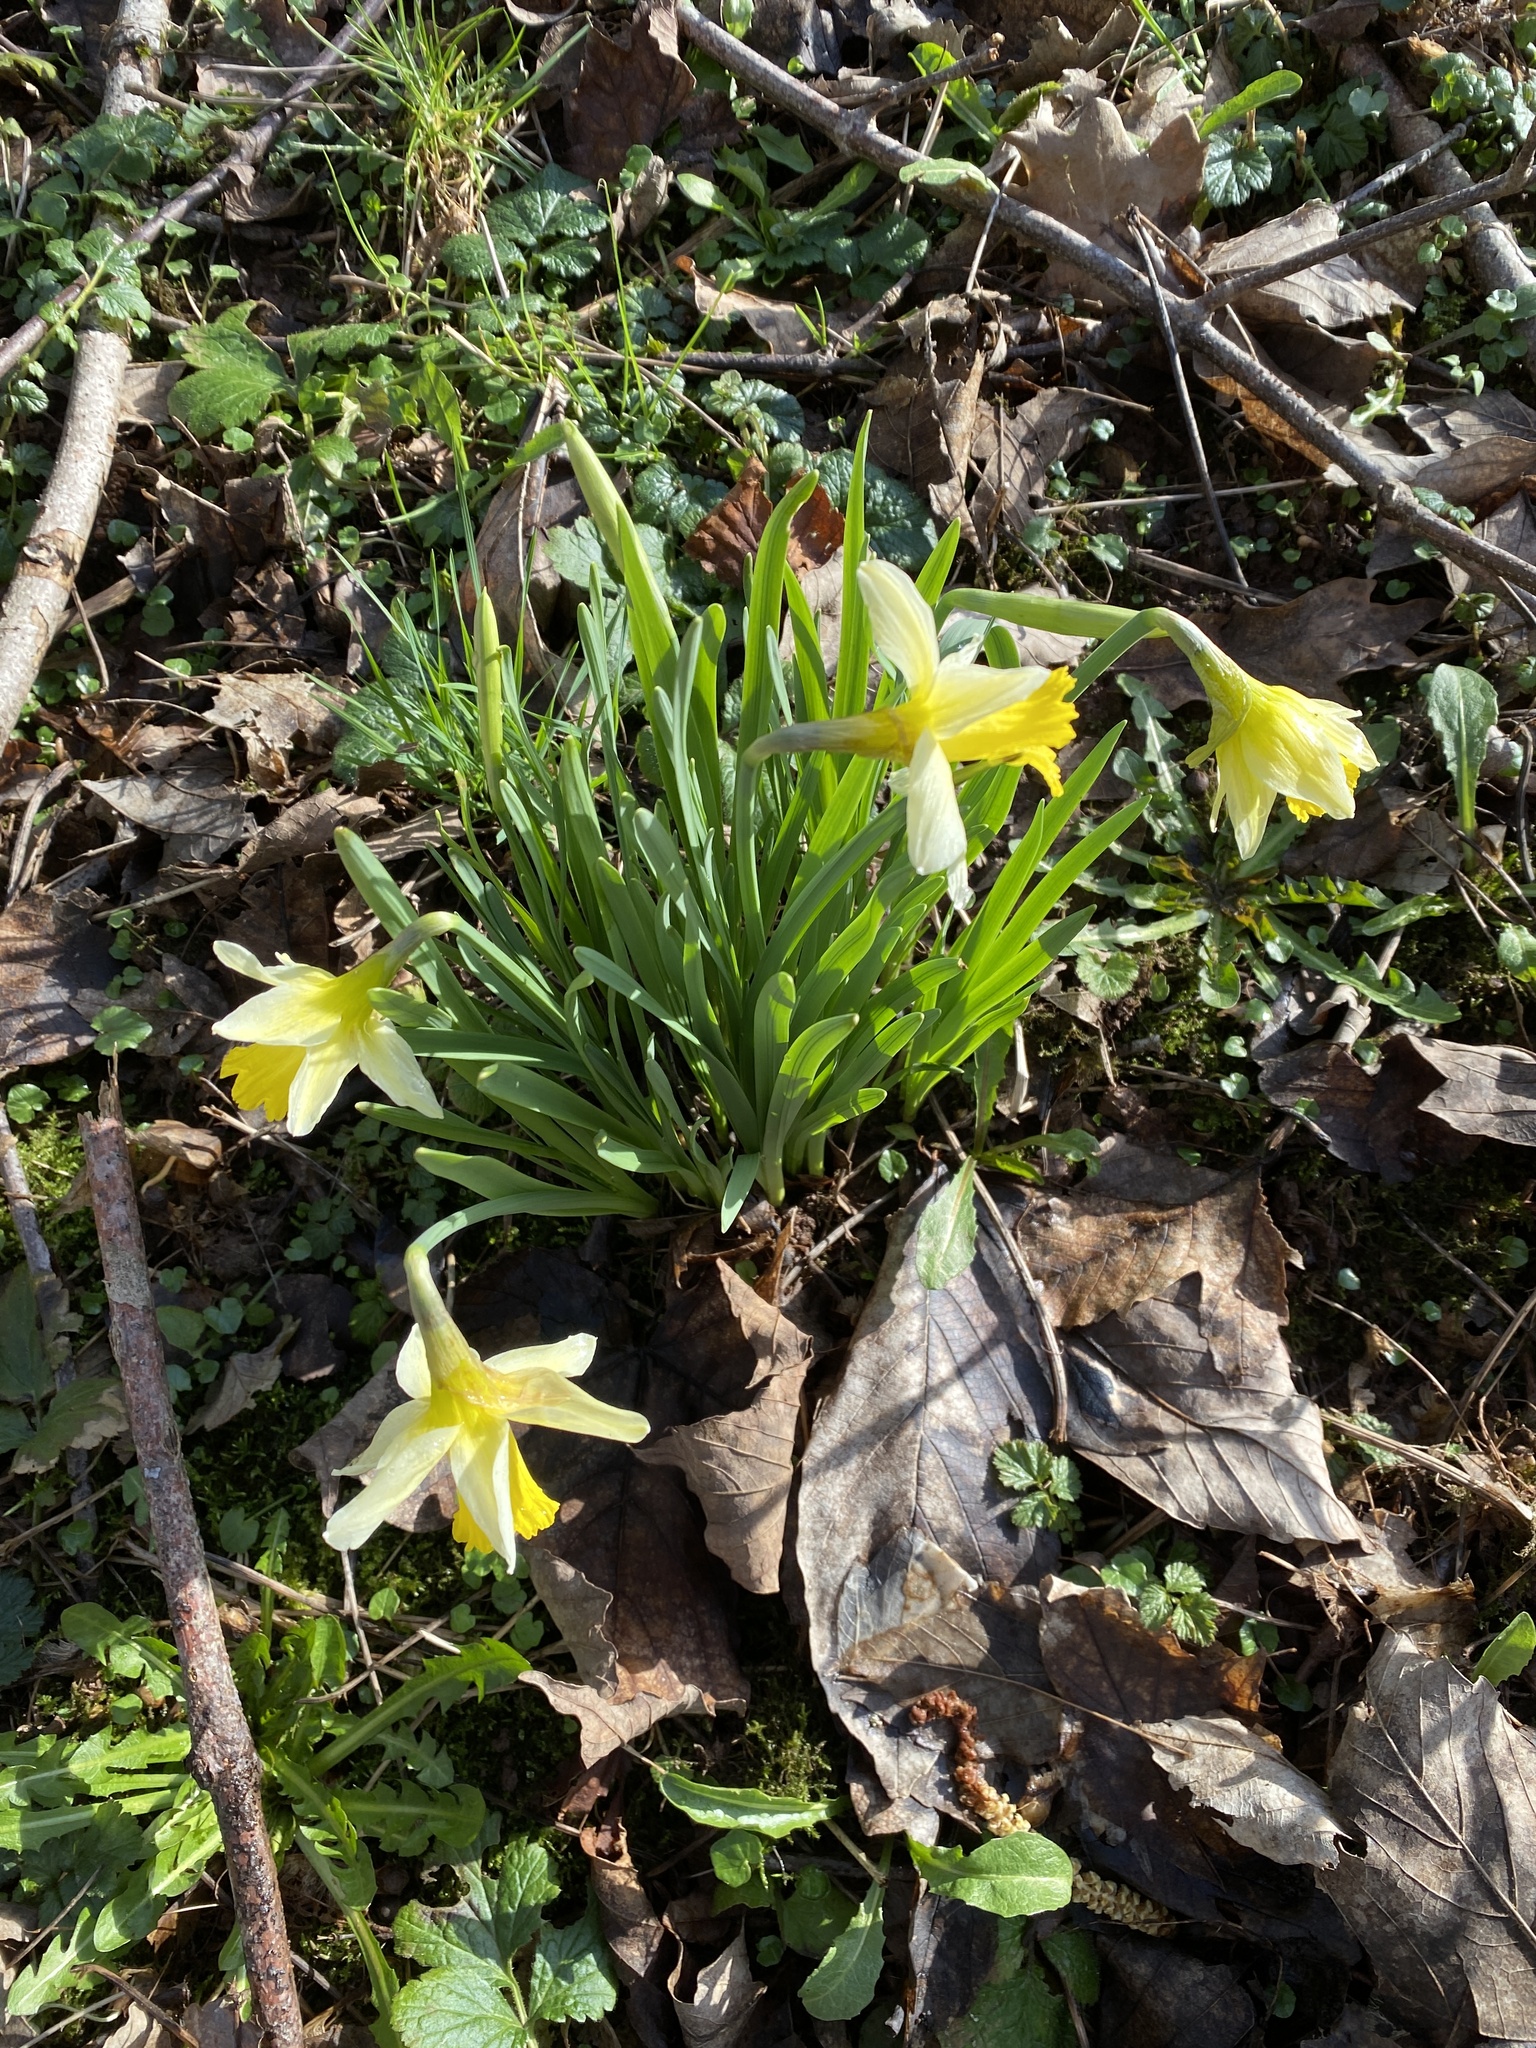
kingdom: Plantae
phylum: Tracheophyta
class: Liliopsida
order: Asparagales
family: Amaryllidaceae
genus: Narcissus
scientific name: Narcissus pseudonarcissus
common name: Daffodil
